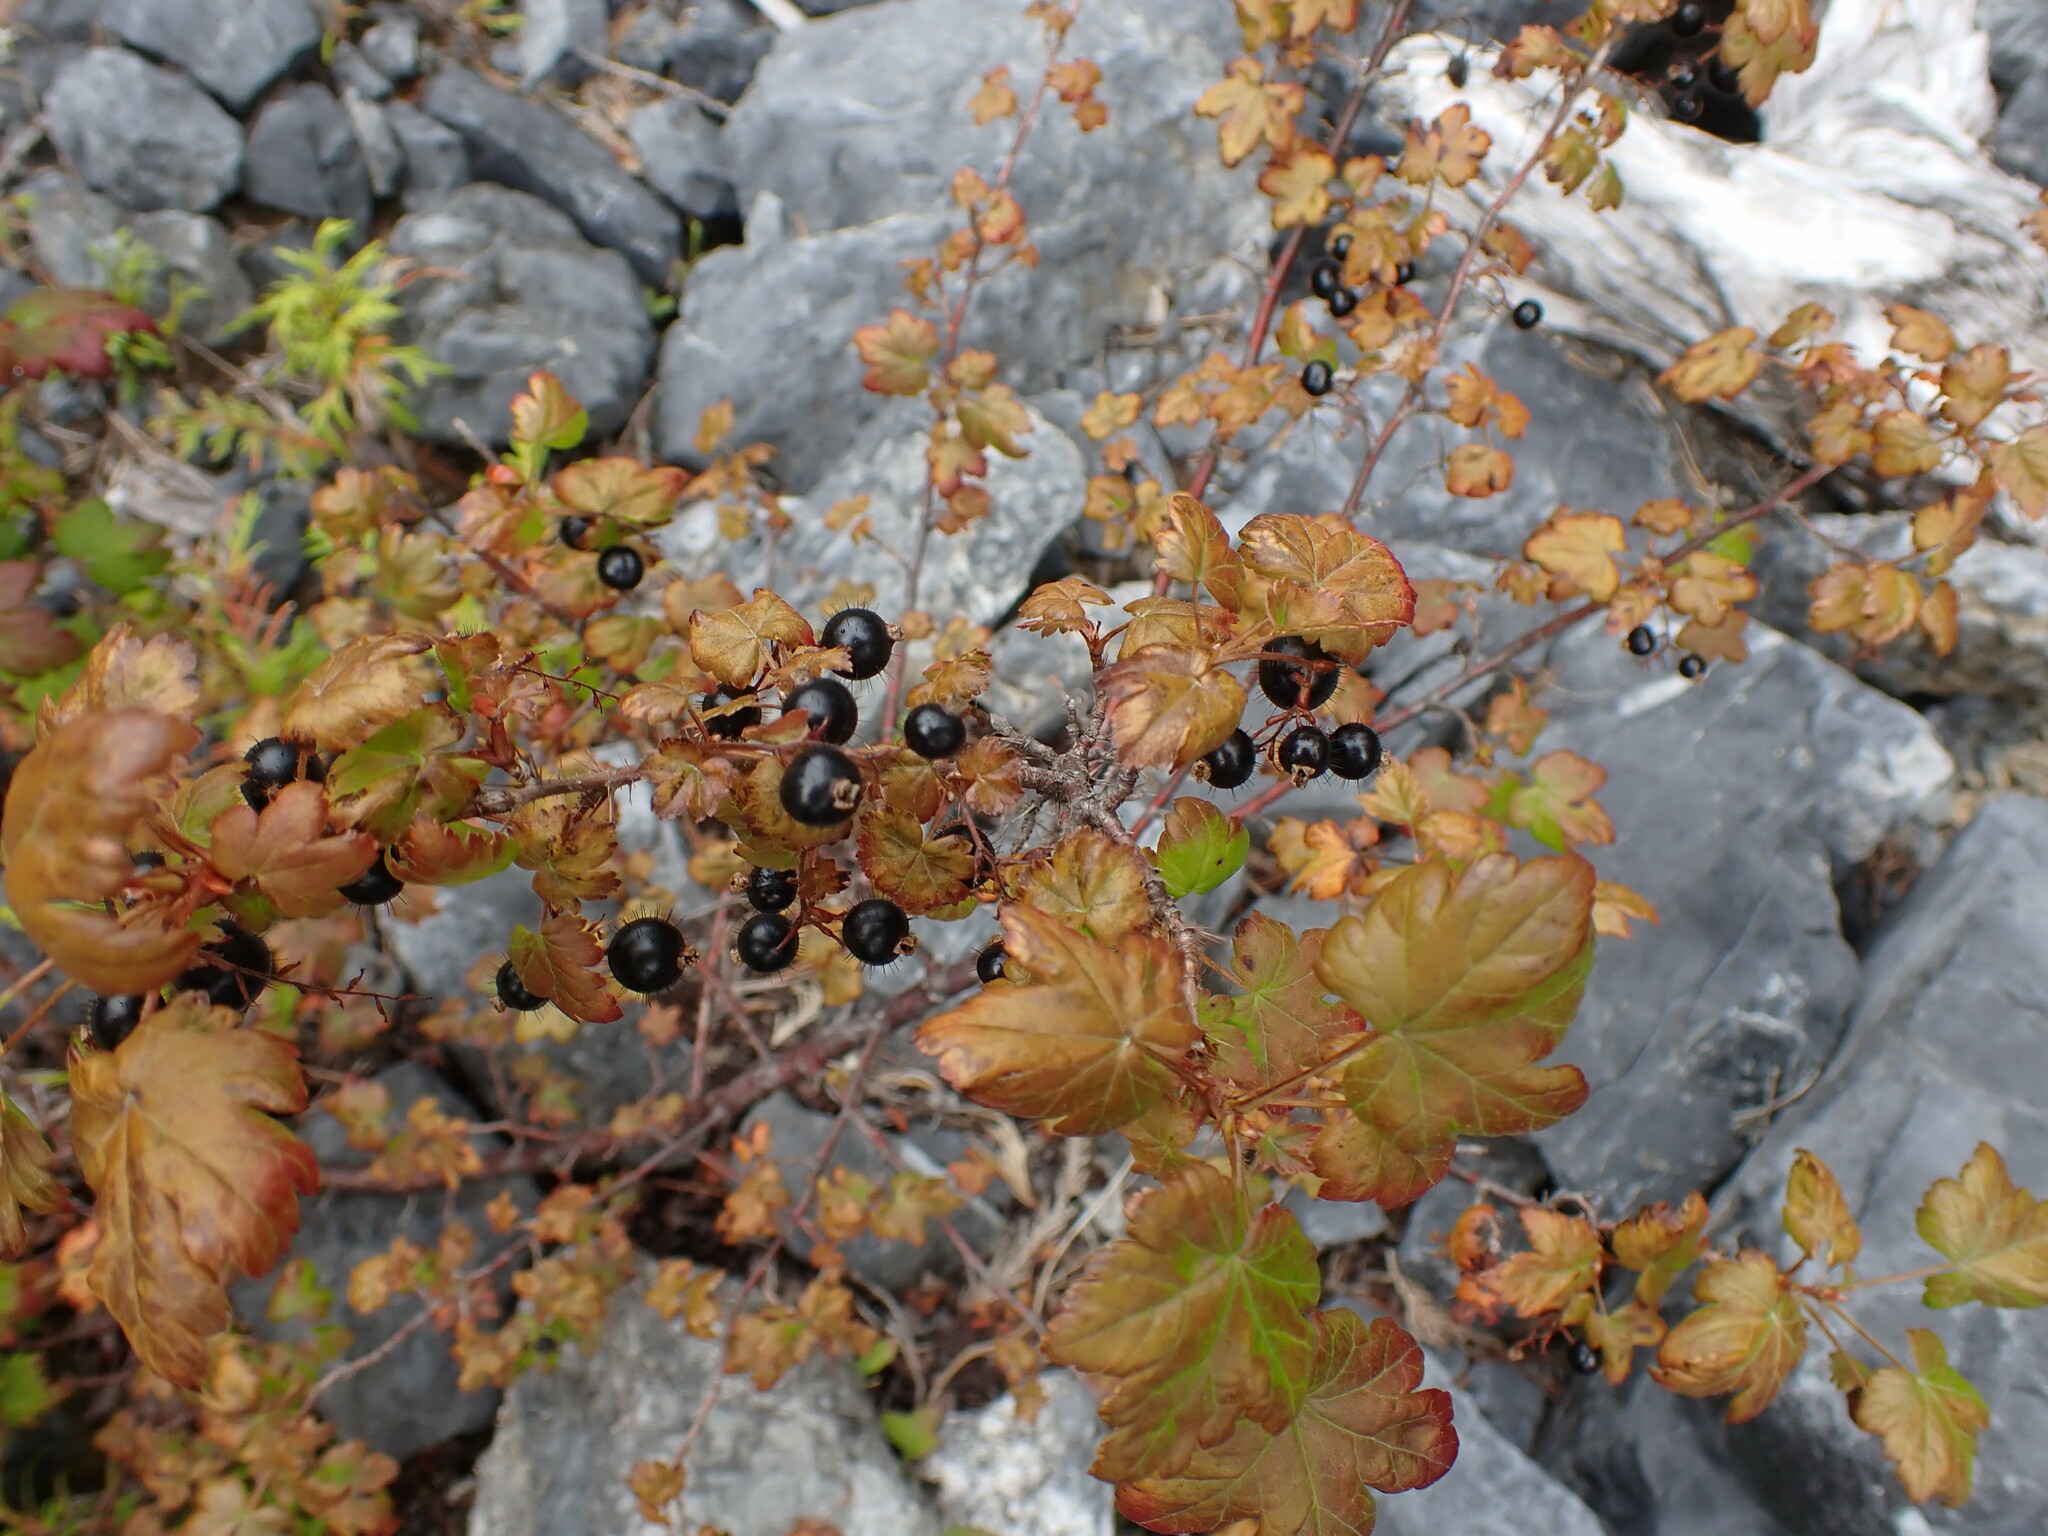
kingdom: Plantae
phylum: Tracheophyta
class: Magnoliopsida
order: Saxifragales
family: Grossulariaceae
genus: Ribes
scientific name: Ribes lacustre
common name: Black gooseberry
